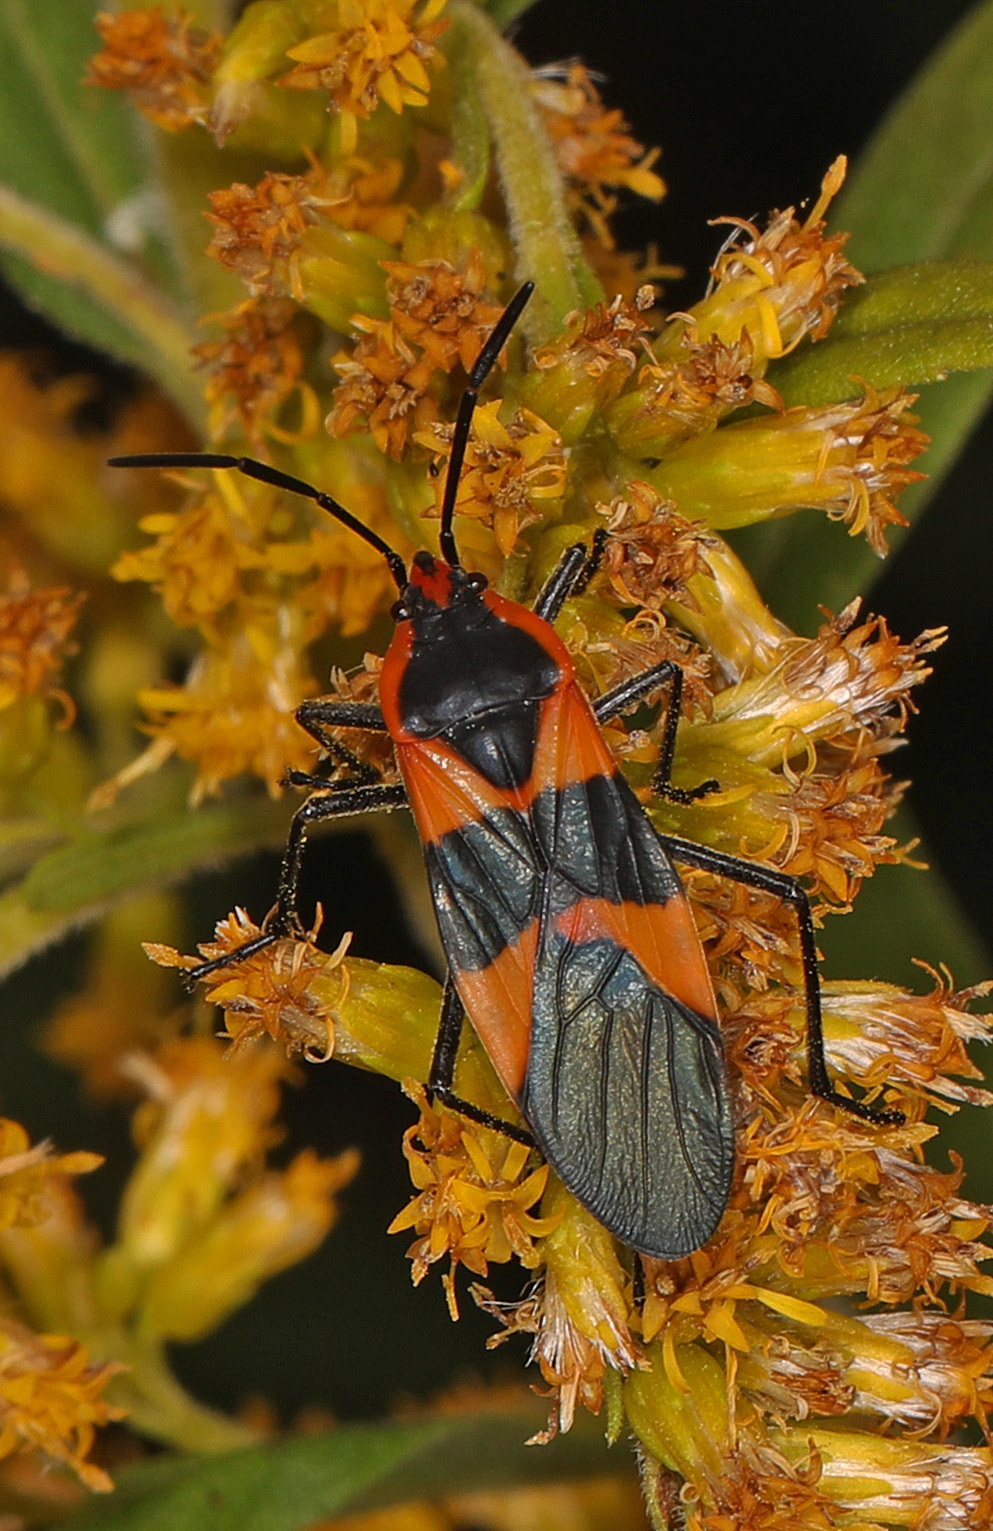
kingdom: Animalia
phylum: Arthropoda
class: Insecta
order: Hemiptera
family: Lygaeidae
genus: Oncopeltus
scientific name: Oncopeltus fasciatus
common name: Large milkweed bug
